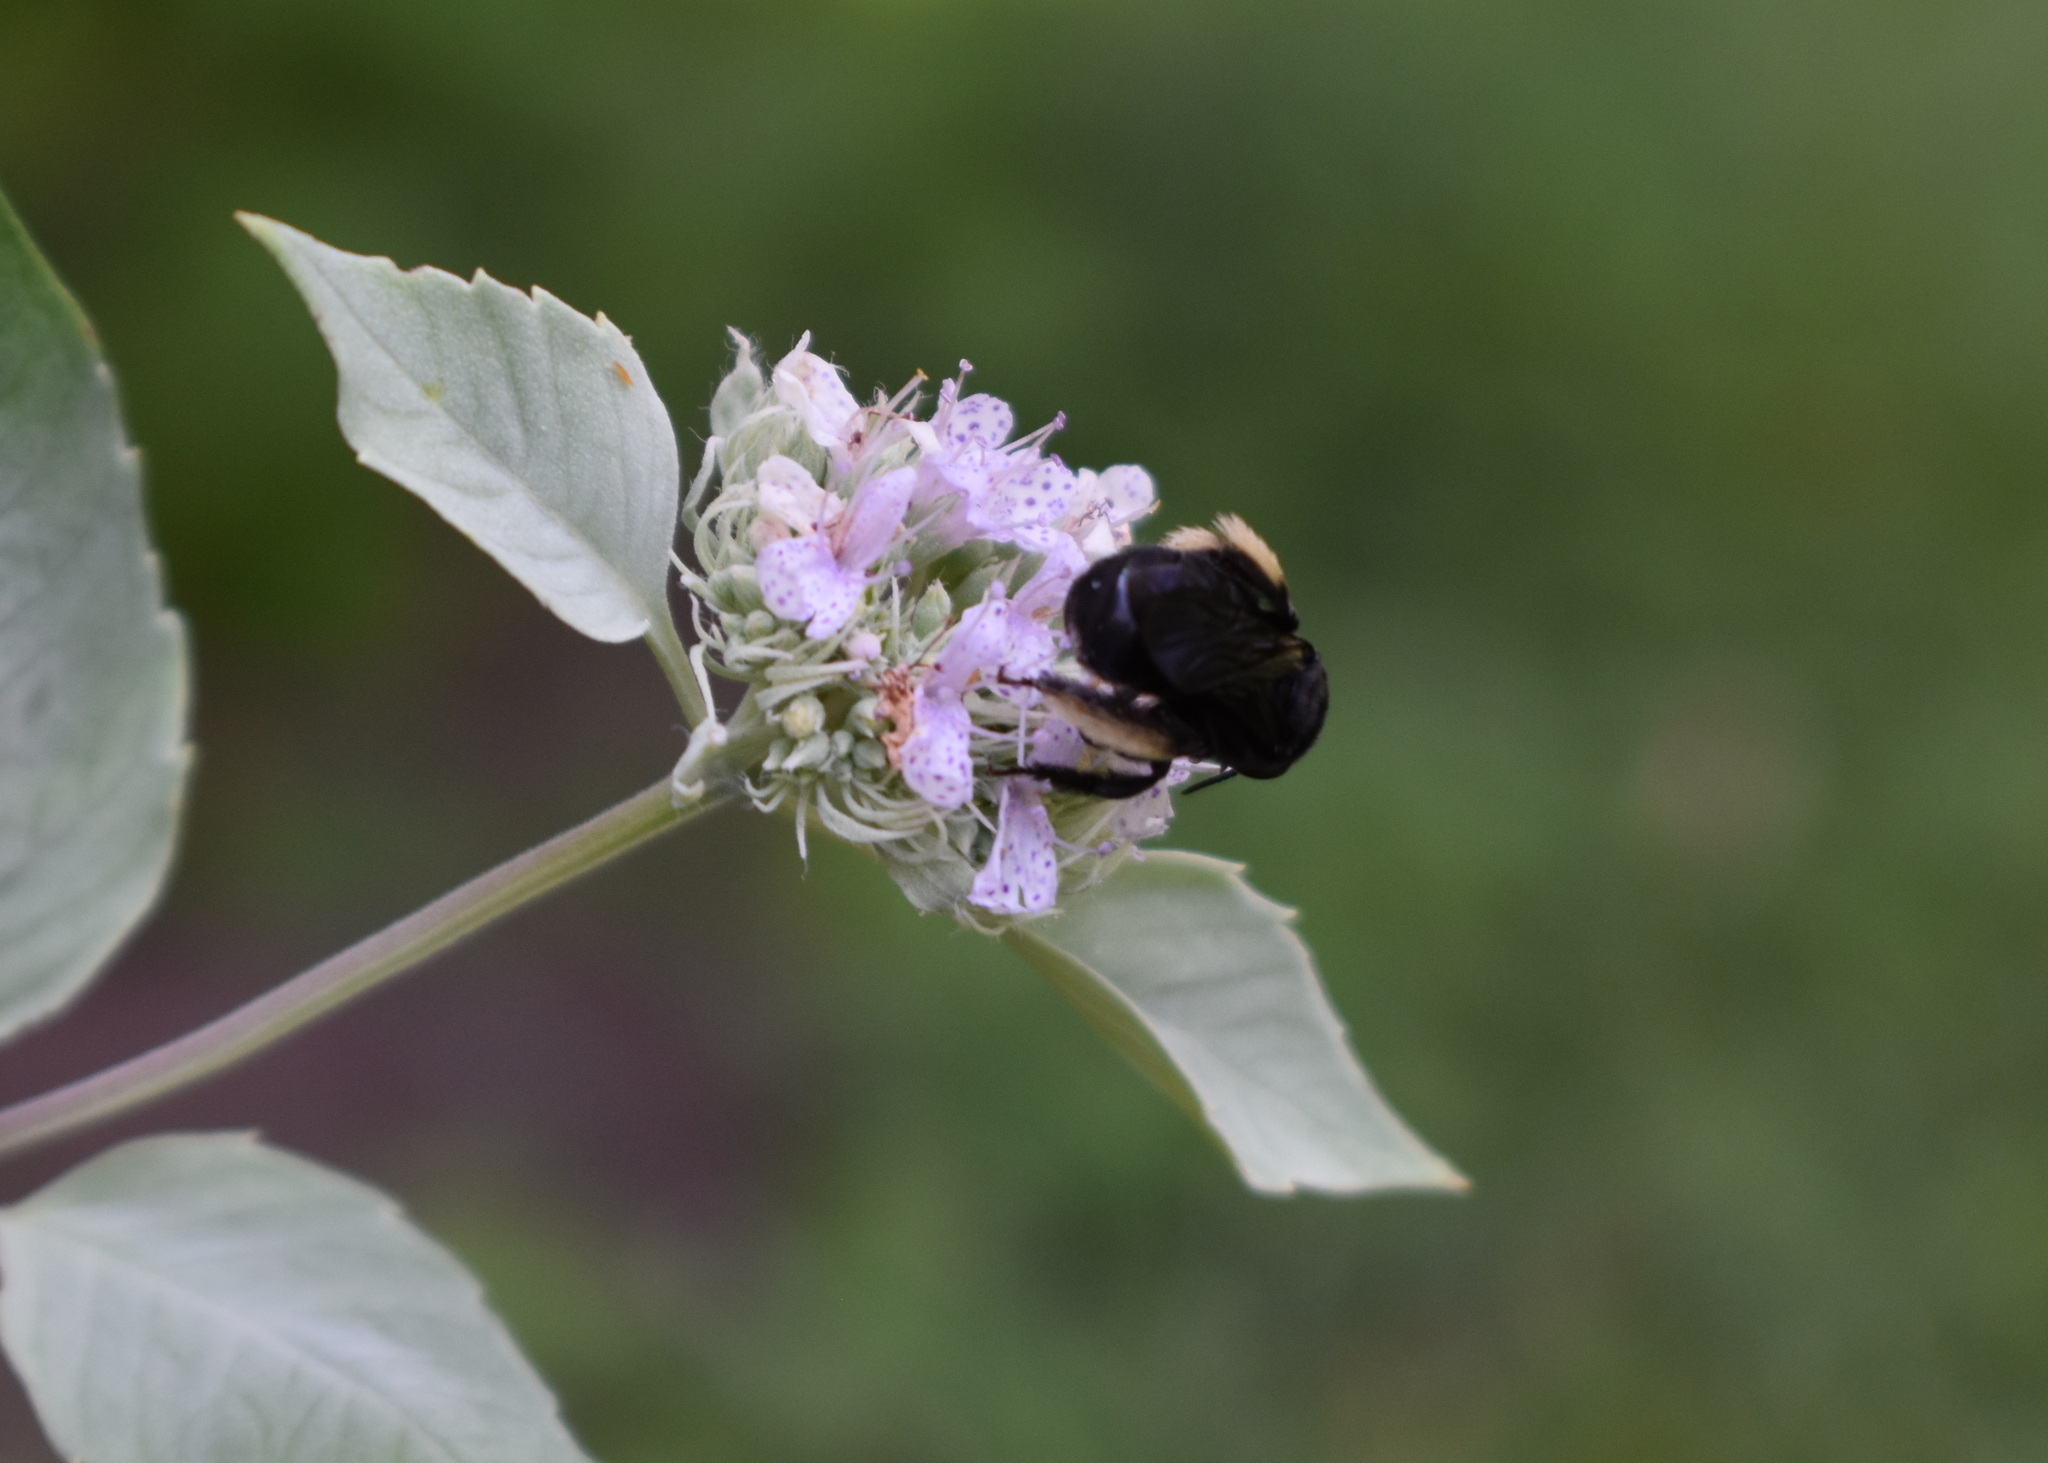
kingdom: Animalia
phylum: Arthropoda
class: Insecta
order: Hymenoptera
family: Apidae
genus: Melissodes
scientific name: Melissodes bimaculatus
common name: Two-spotted long-horned bee
